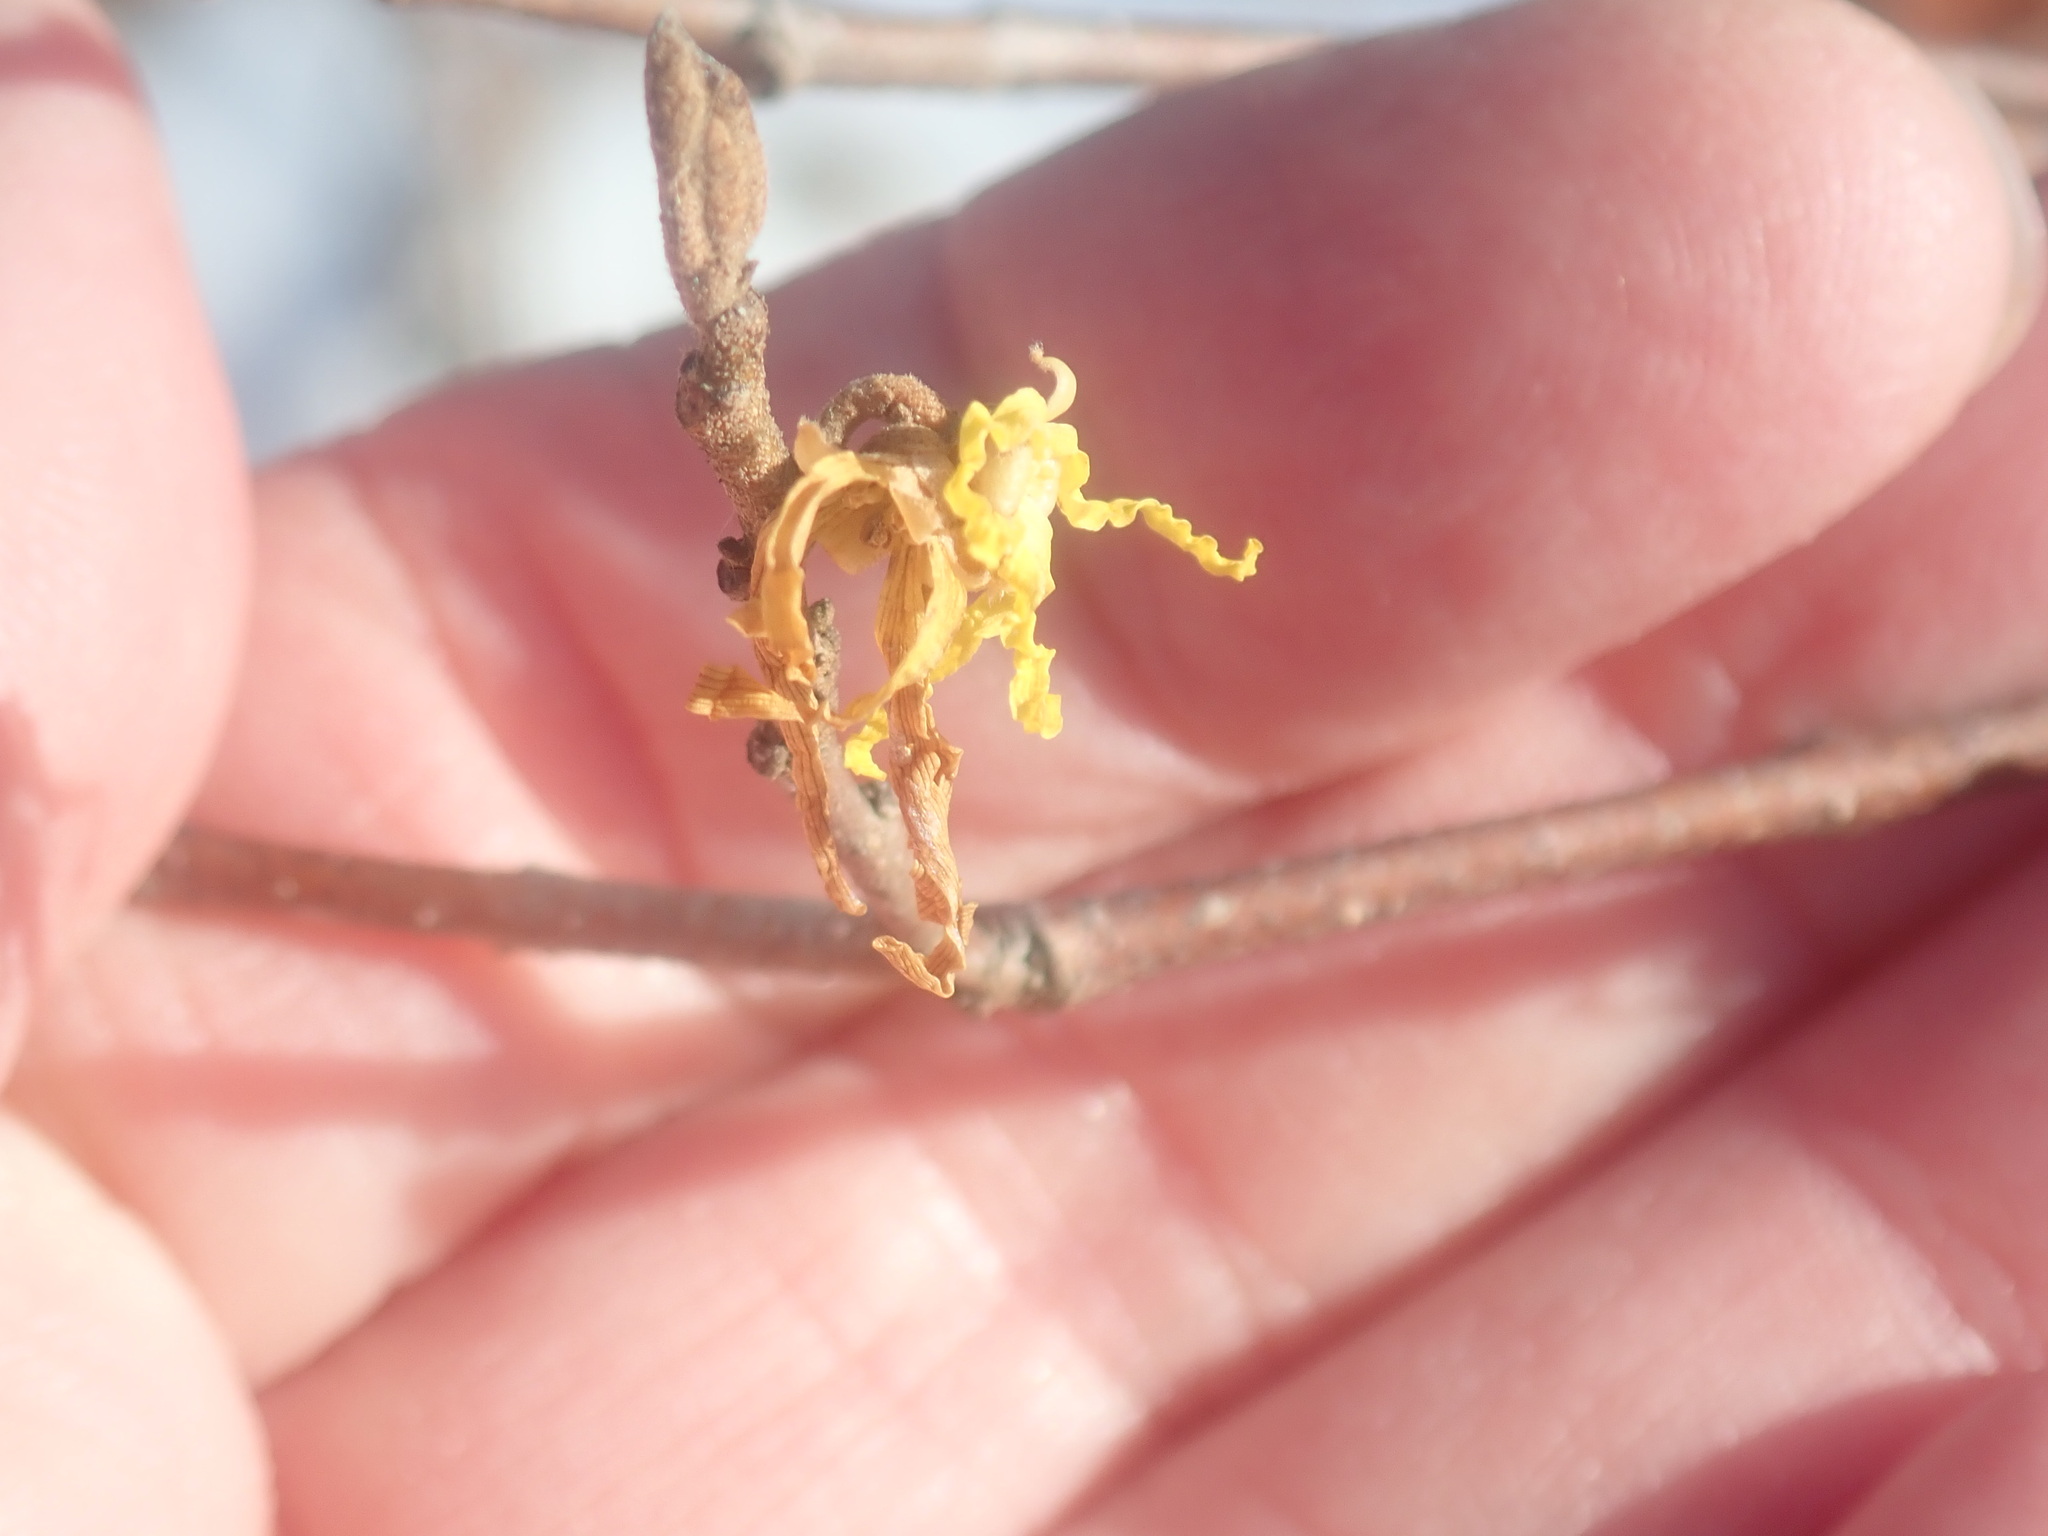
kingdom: Plantae
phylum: Tracheophyta
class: Magnoliopsida
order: Saxifragales
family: Hamamelidaceae
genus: Hamamelis
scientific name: Hamamelis virginiana
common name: Witch-hazel
